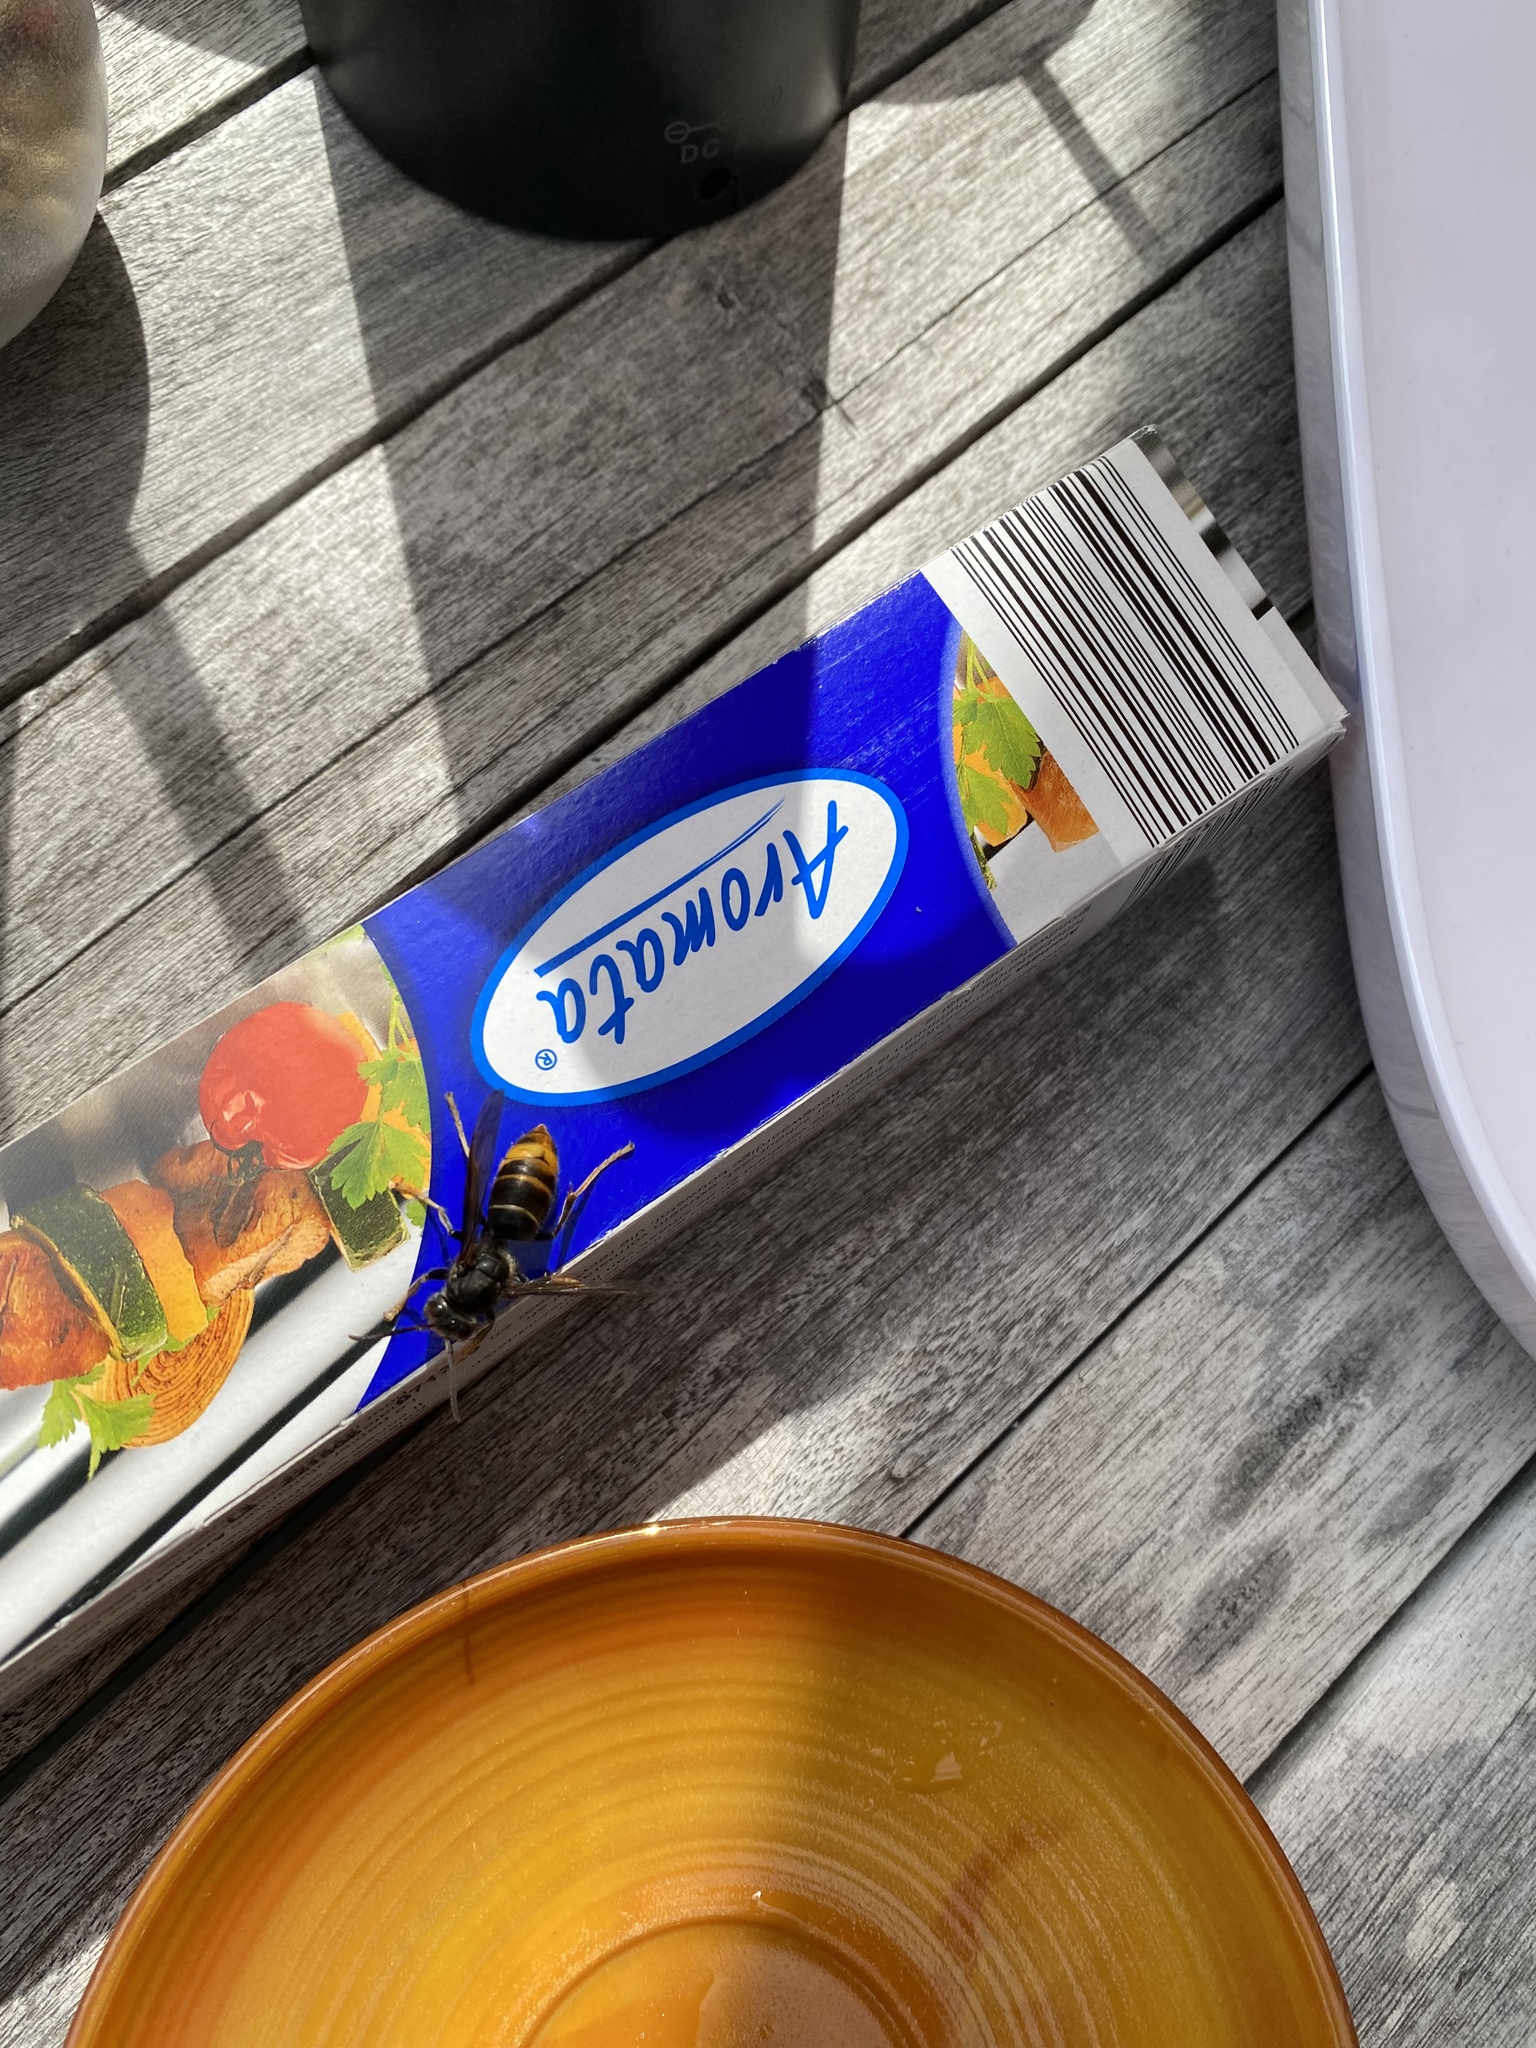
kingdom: Animalia
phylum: Arthropoda
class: Insecta
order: Hymenoptera
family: Vespidae
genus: Vespa
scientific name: Vespa velutina
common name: Asian hornet
